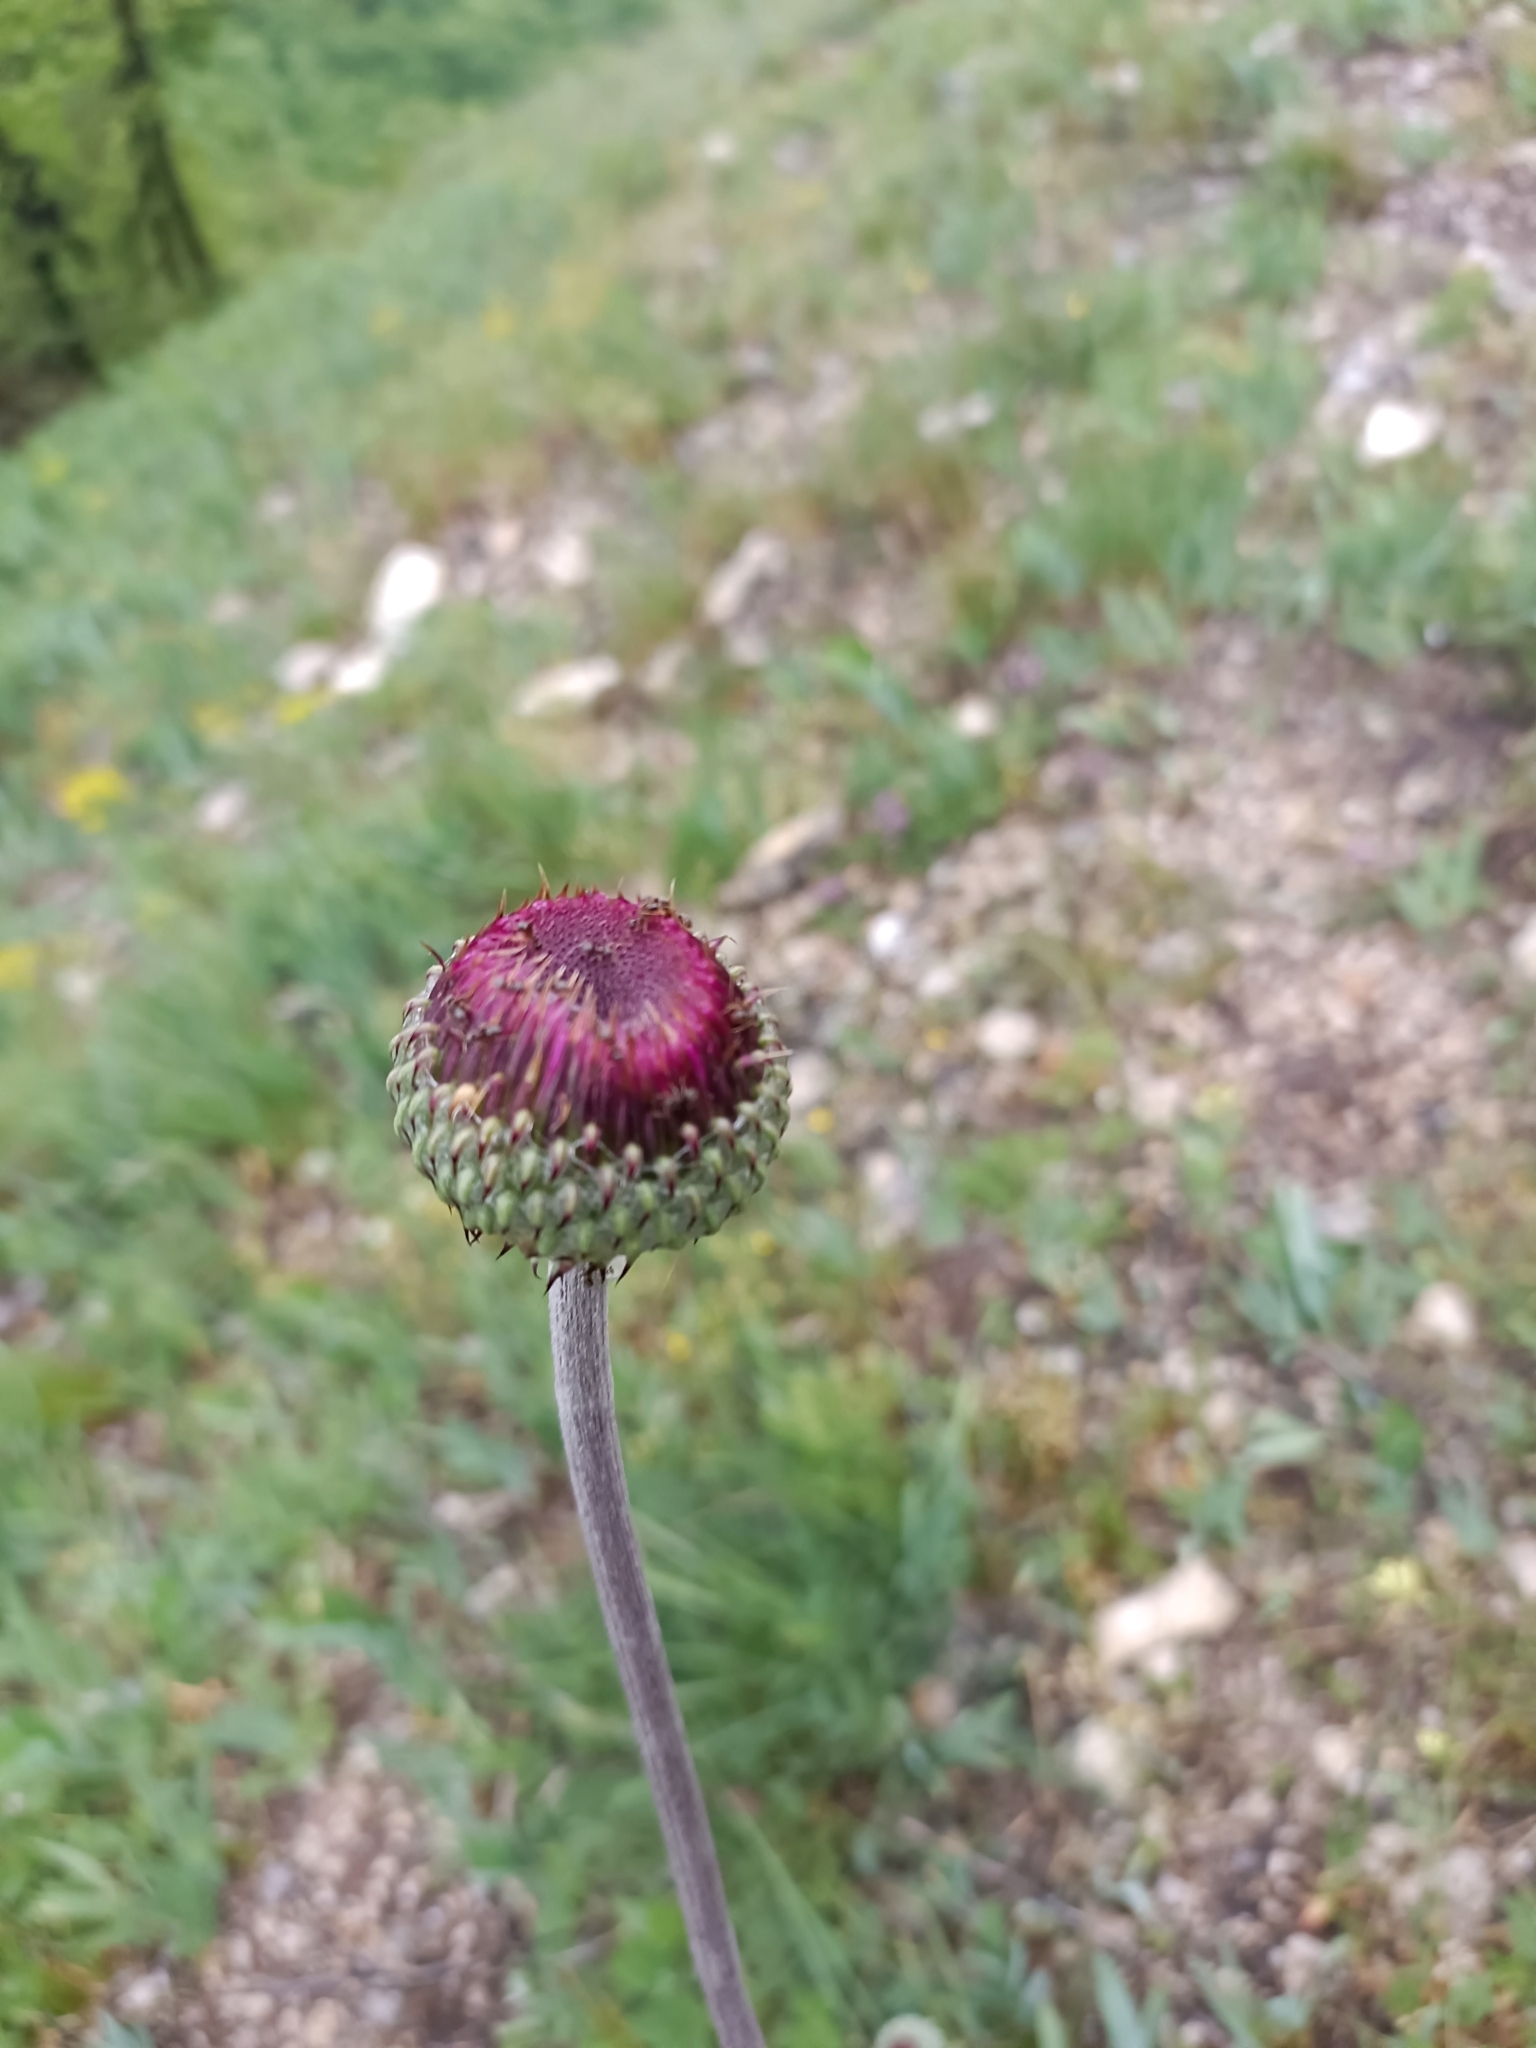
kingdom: Plantae
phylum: Tracheophyta
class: Magnoliopsida
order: Asterales
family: Asteraceae
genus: Jurinea
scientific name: Jurinea mollis
